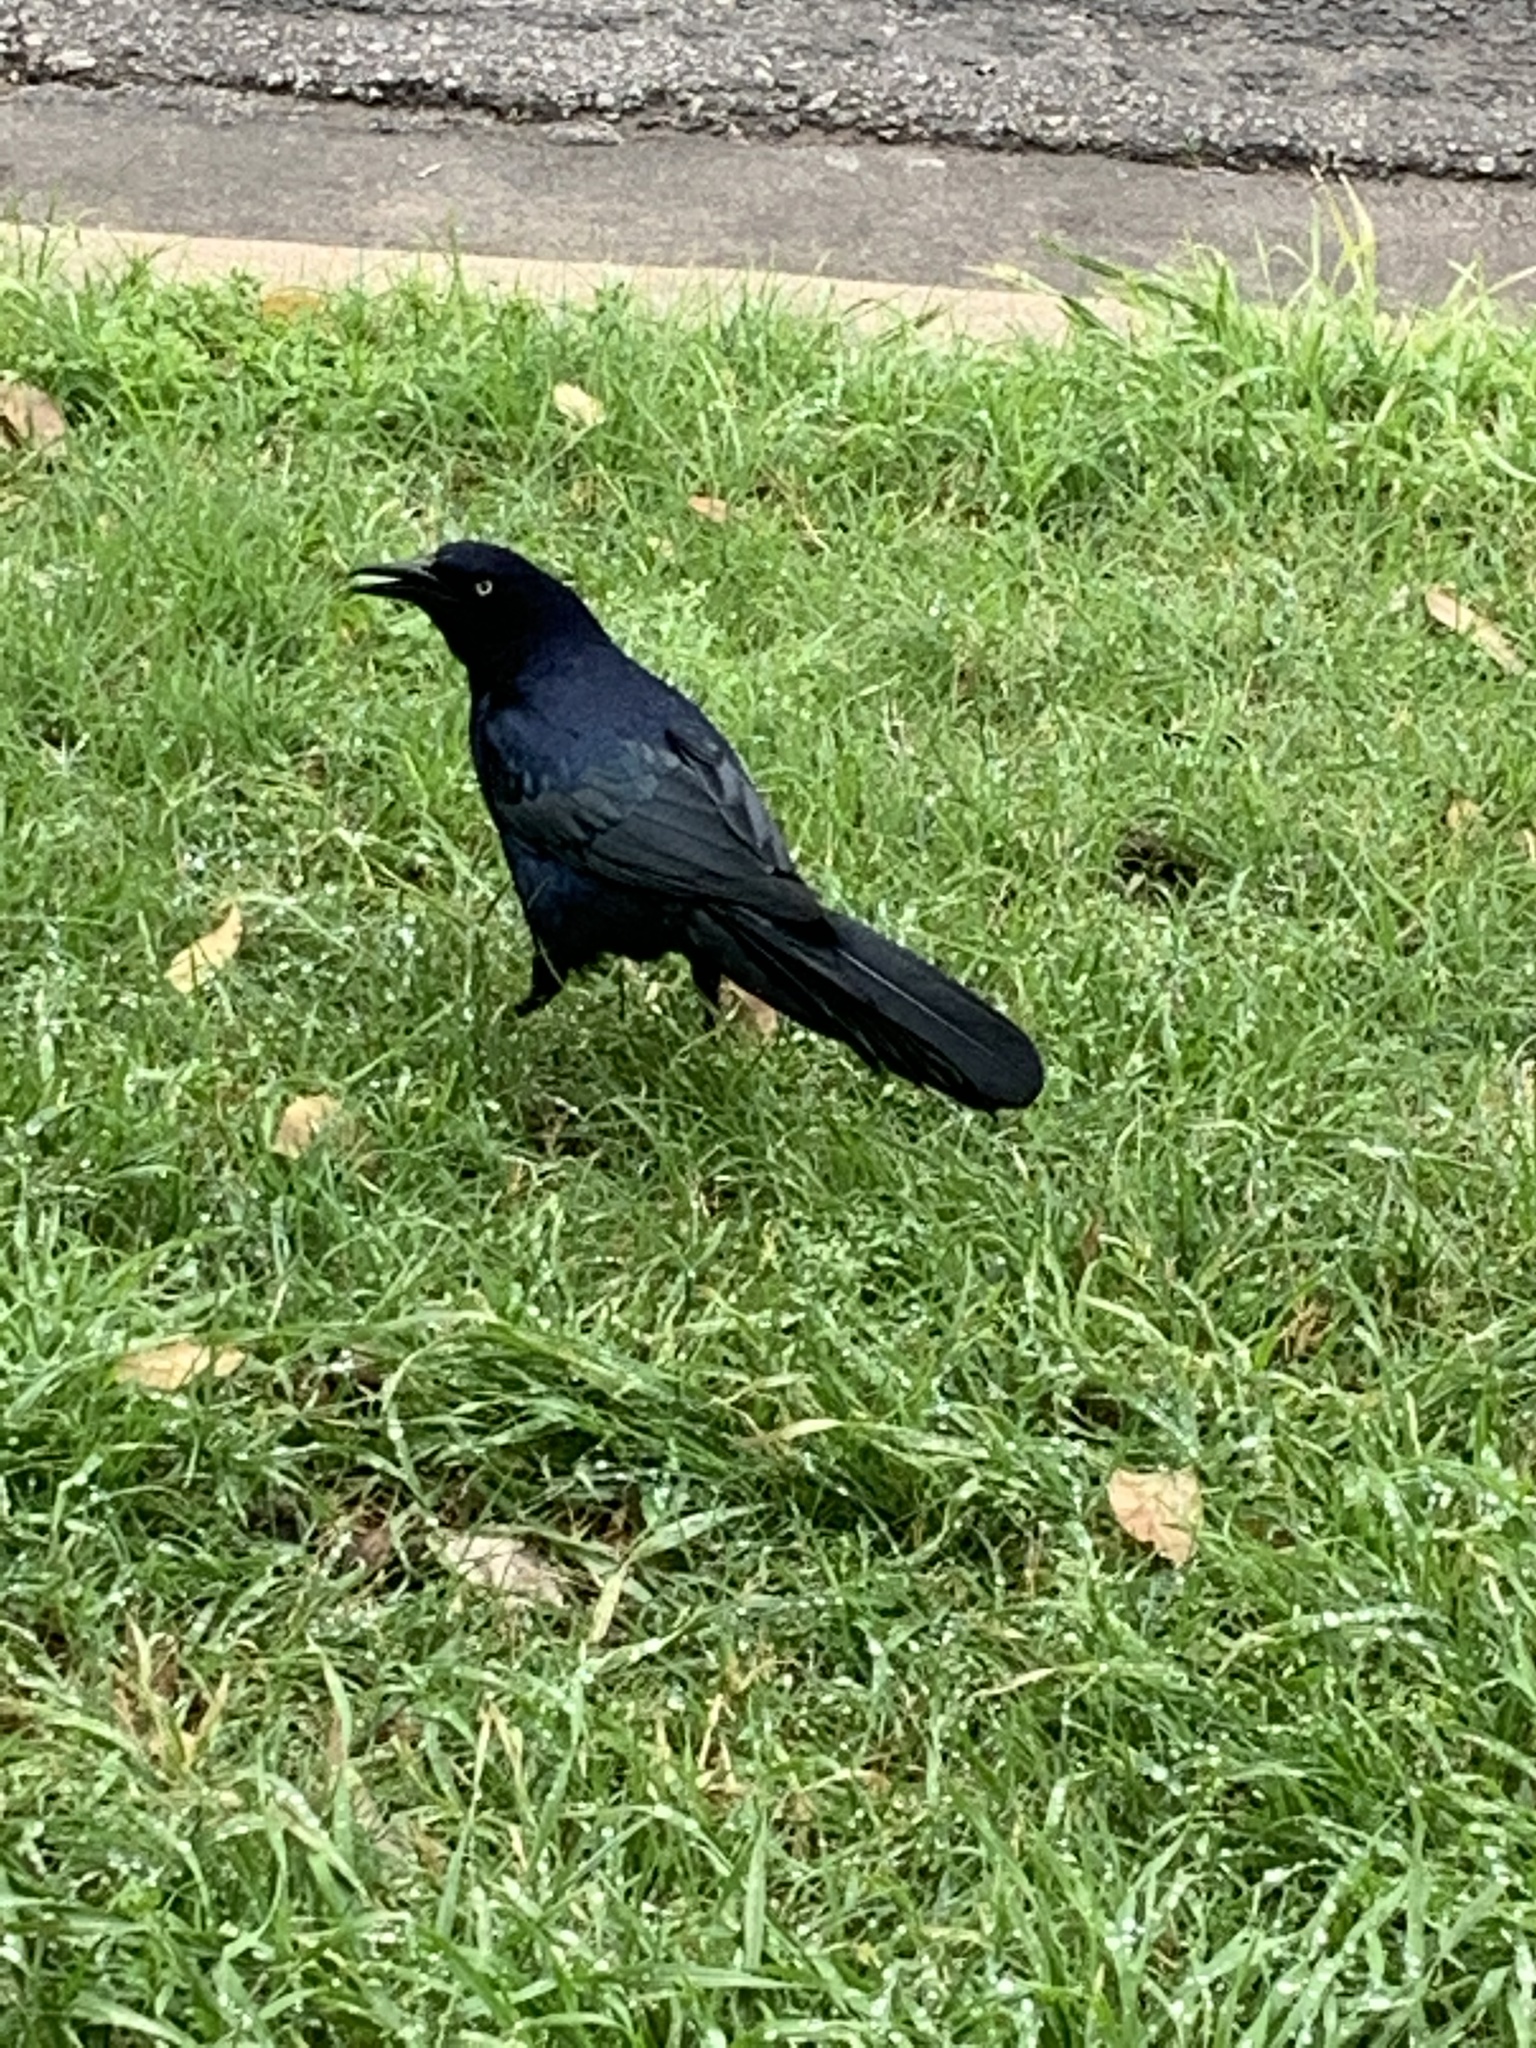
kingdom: Animalia
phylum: Chordata
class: Aves
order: Passeriformes
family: Icteridae
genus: Quiscalus
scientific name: Quiscalus mexicanus
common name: Great-tailed grackle
